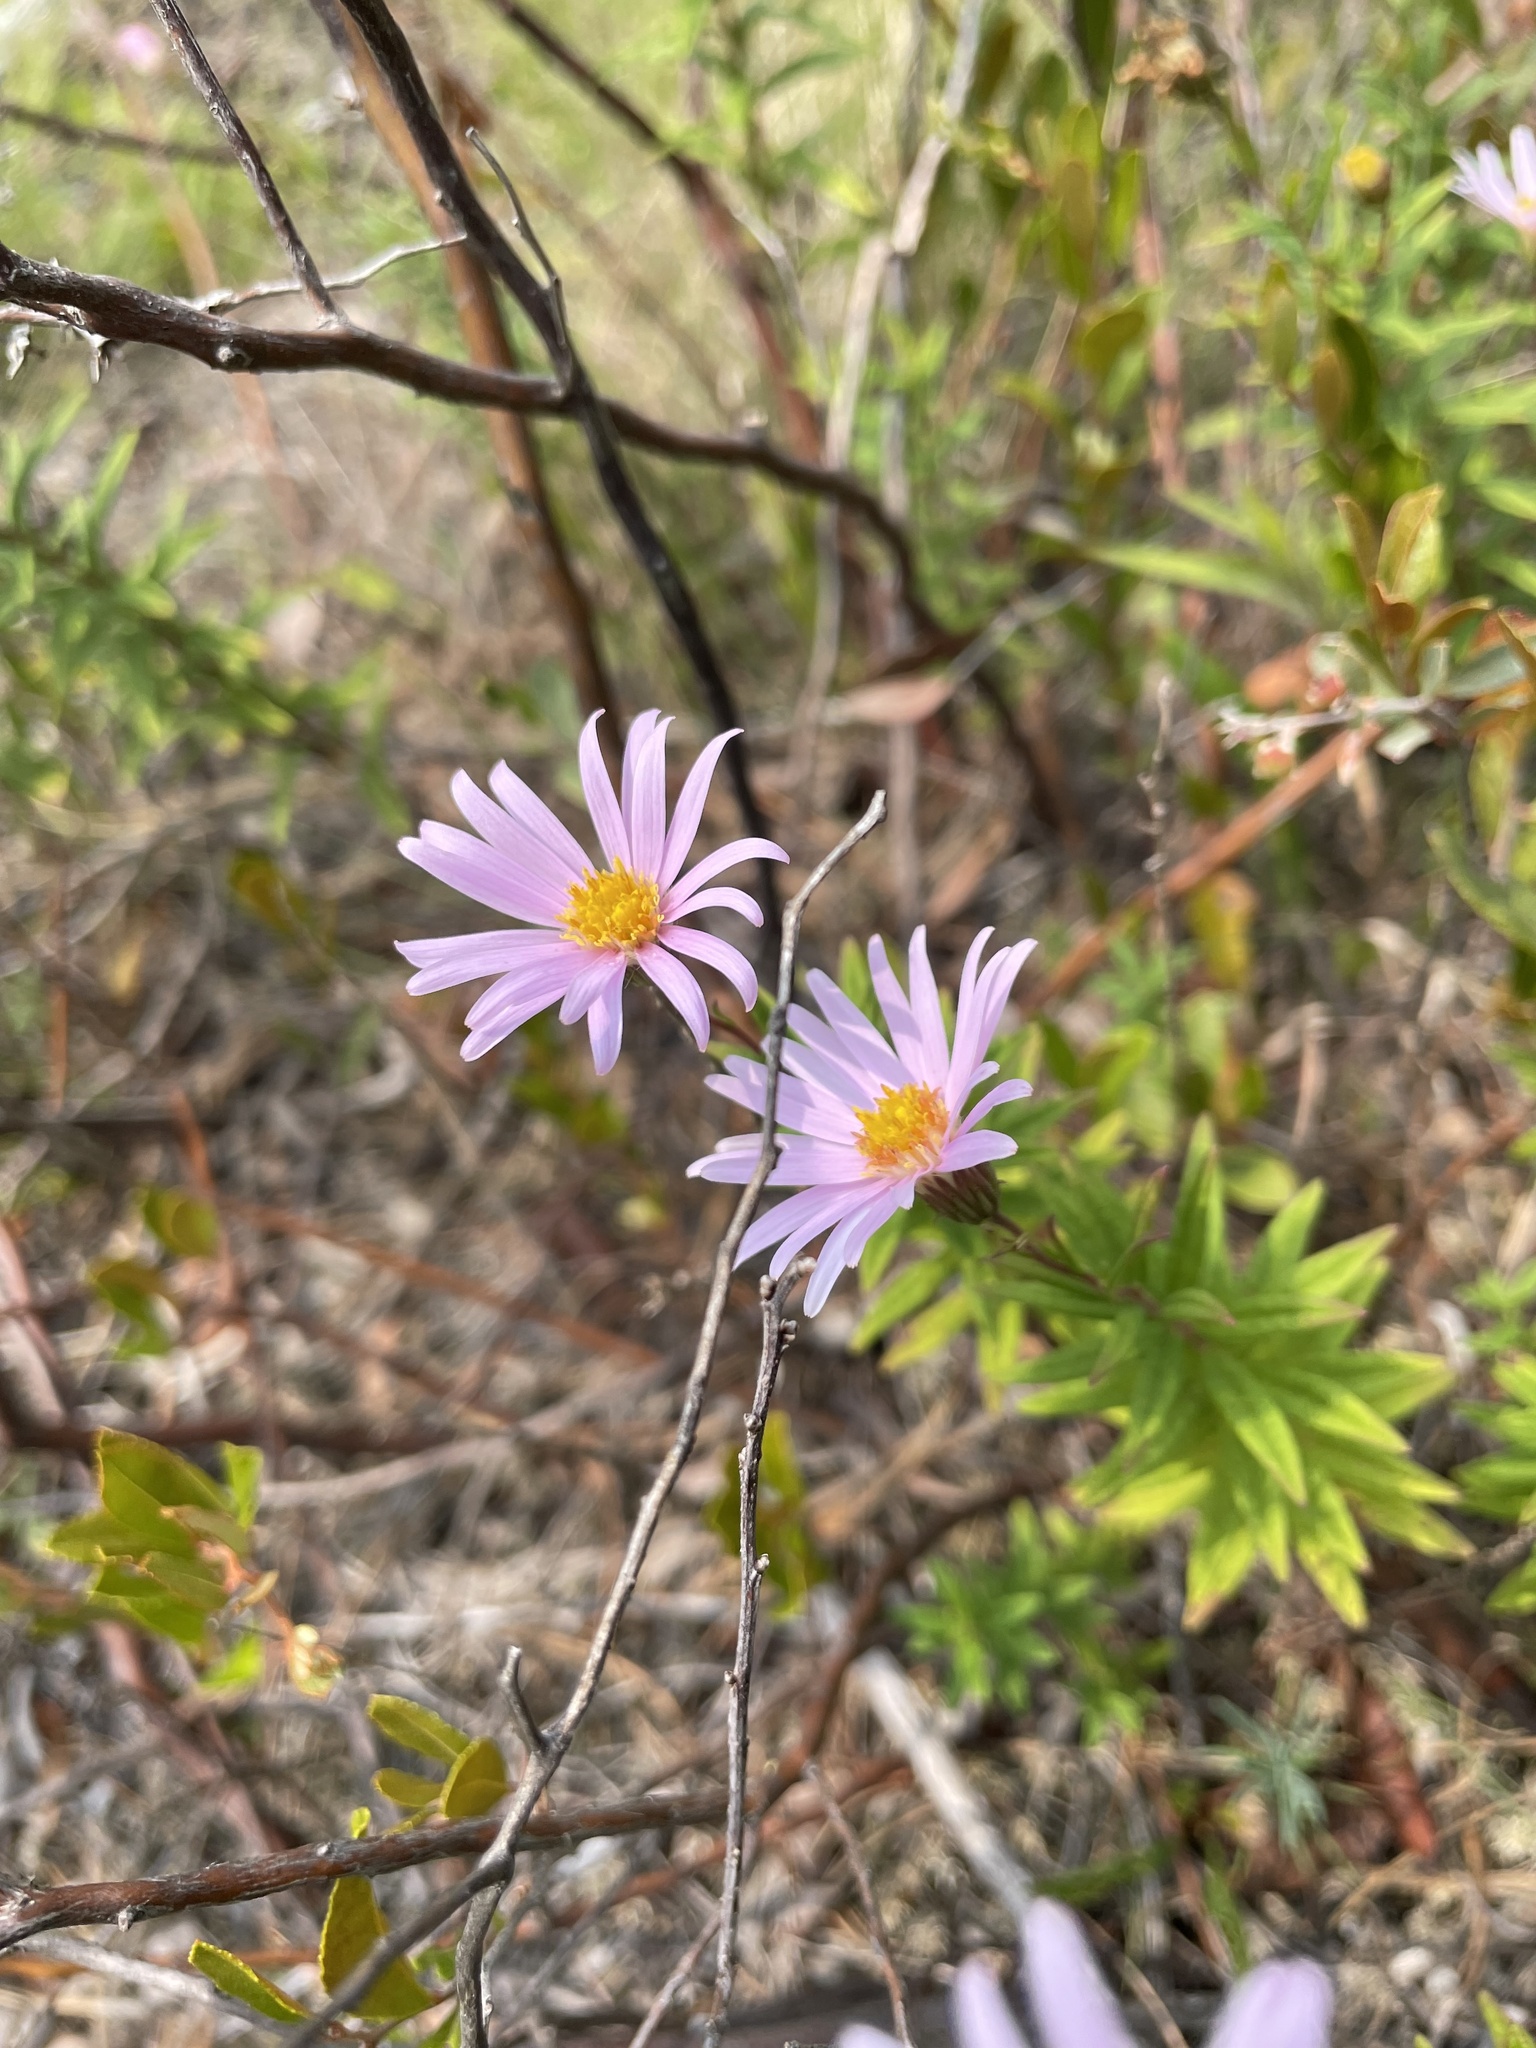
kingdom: Plantae
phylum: Tracheophyta
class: Magnoliopsida
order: Asterales
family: Asteraceae
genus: Oclemena
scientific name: Oclemena nemoralis
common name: Bog aster
